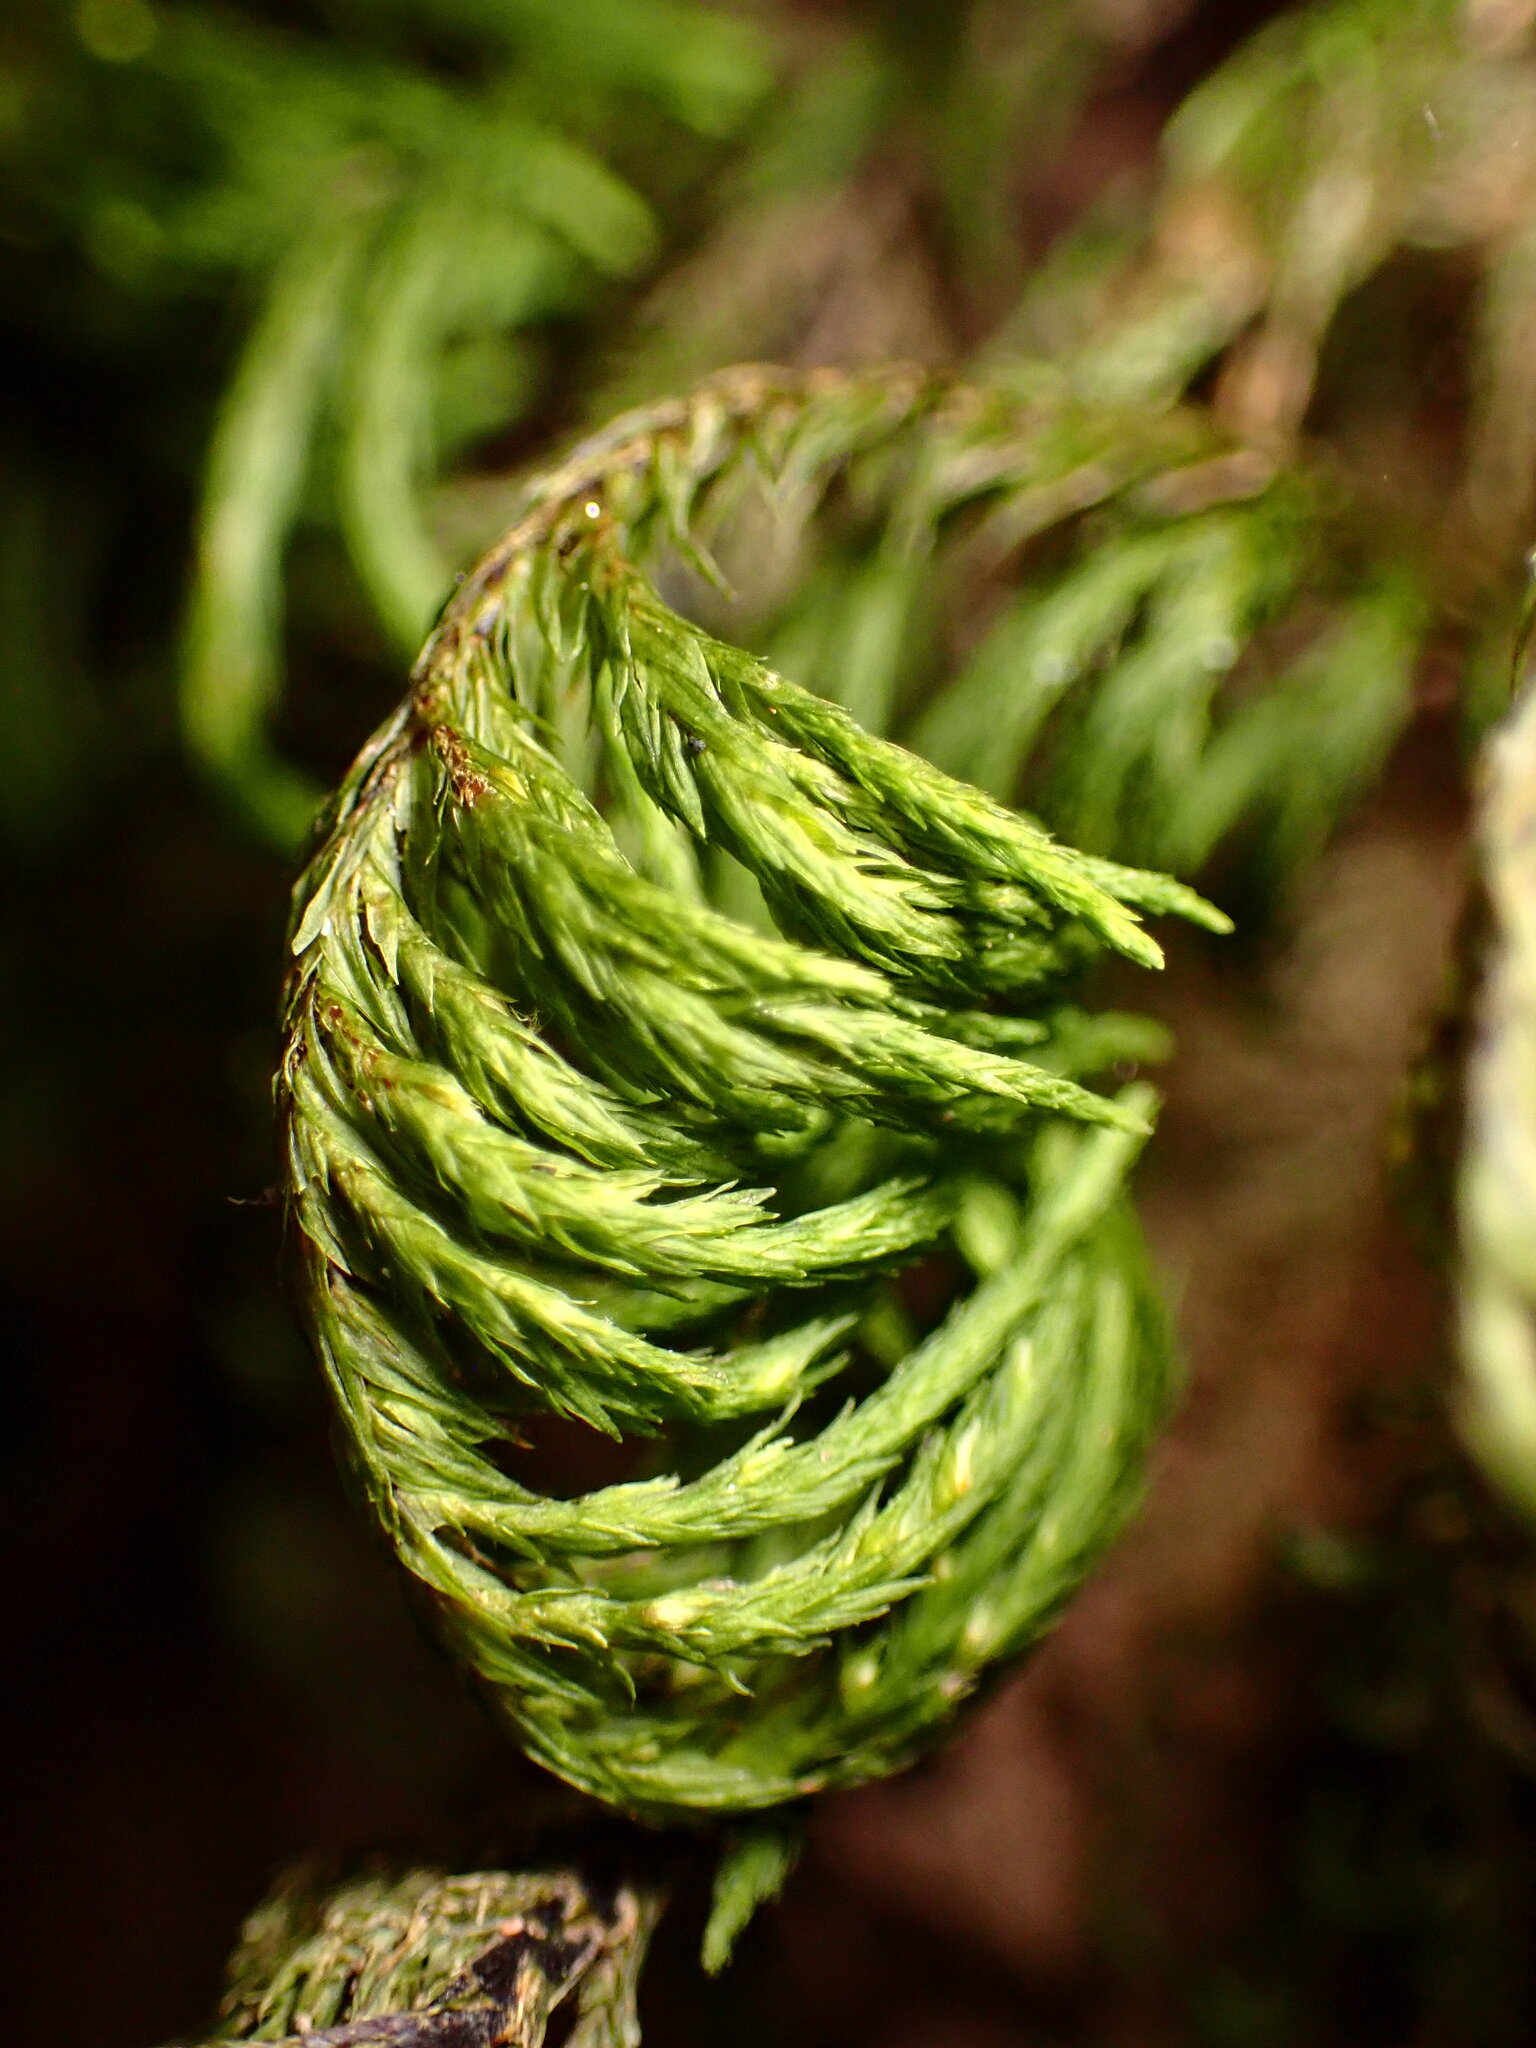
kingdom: Plantae
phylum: Bryophyta
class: Bryopsida
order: Hypnales
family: Cryphaeaceae
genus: Dendroalsia
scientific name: Dendroalsia abietina
